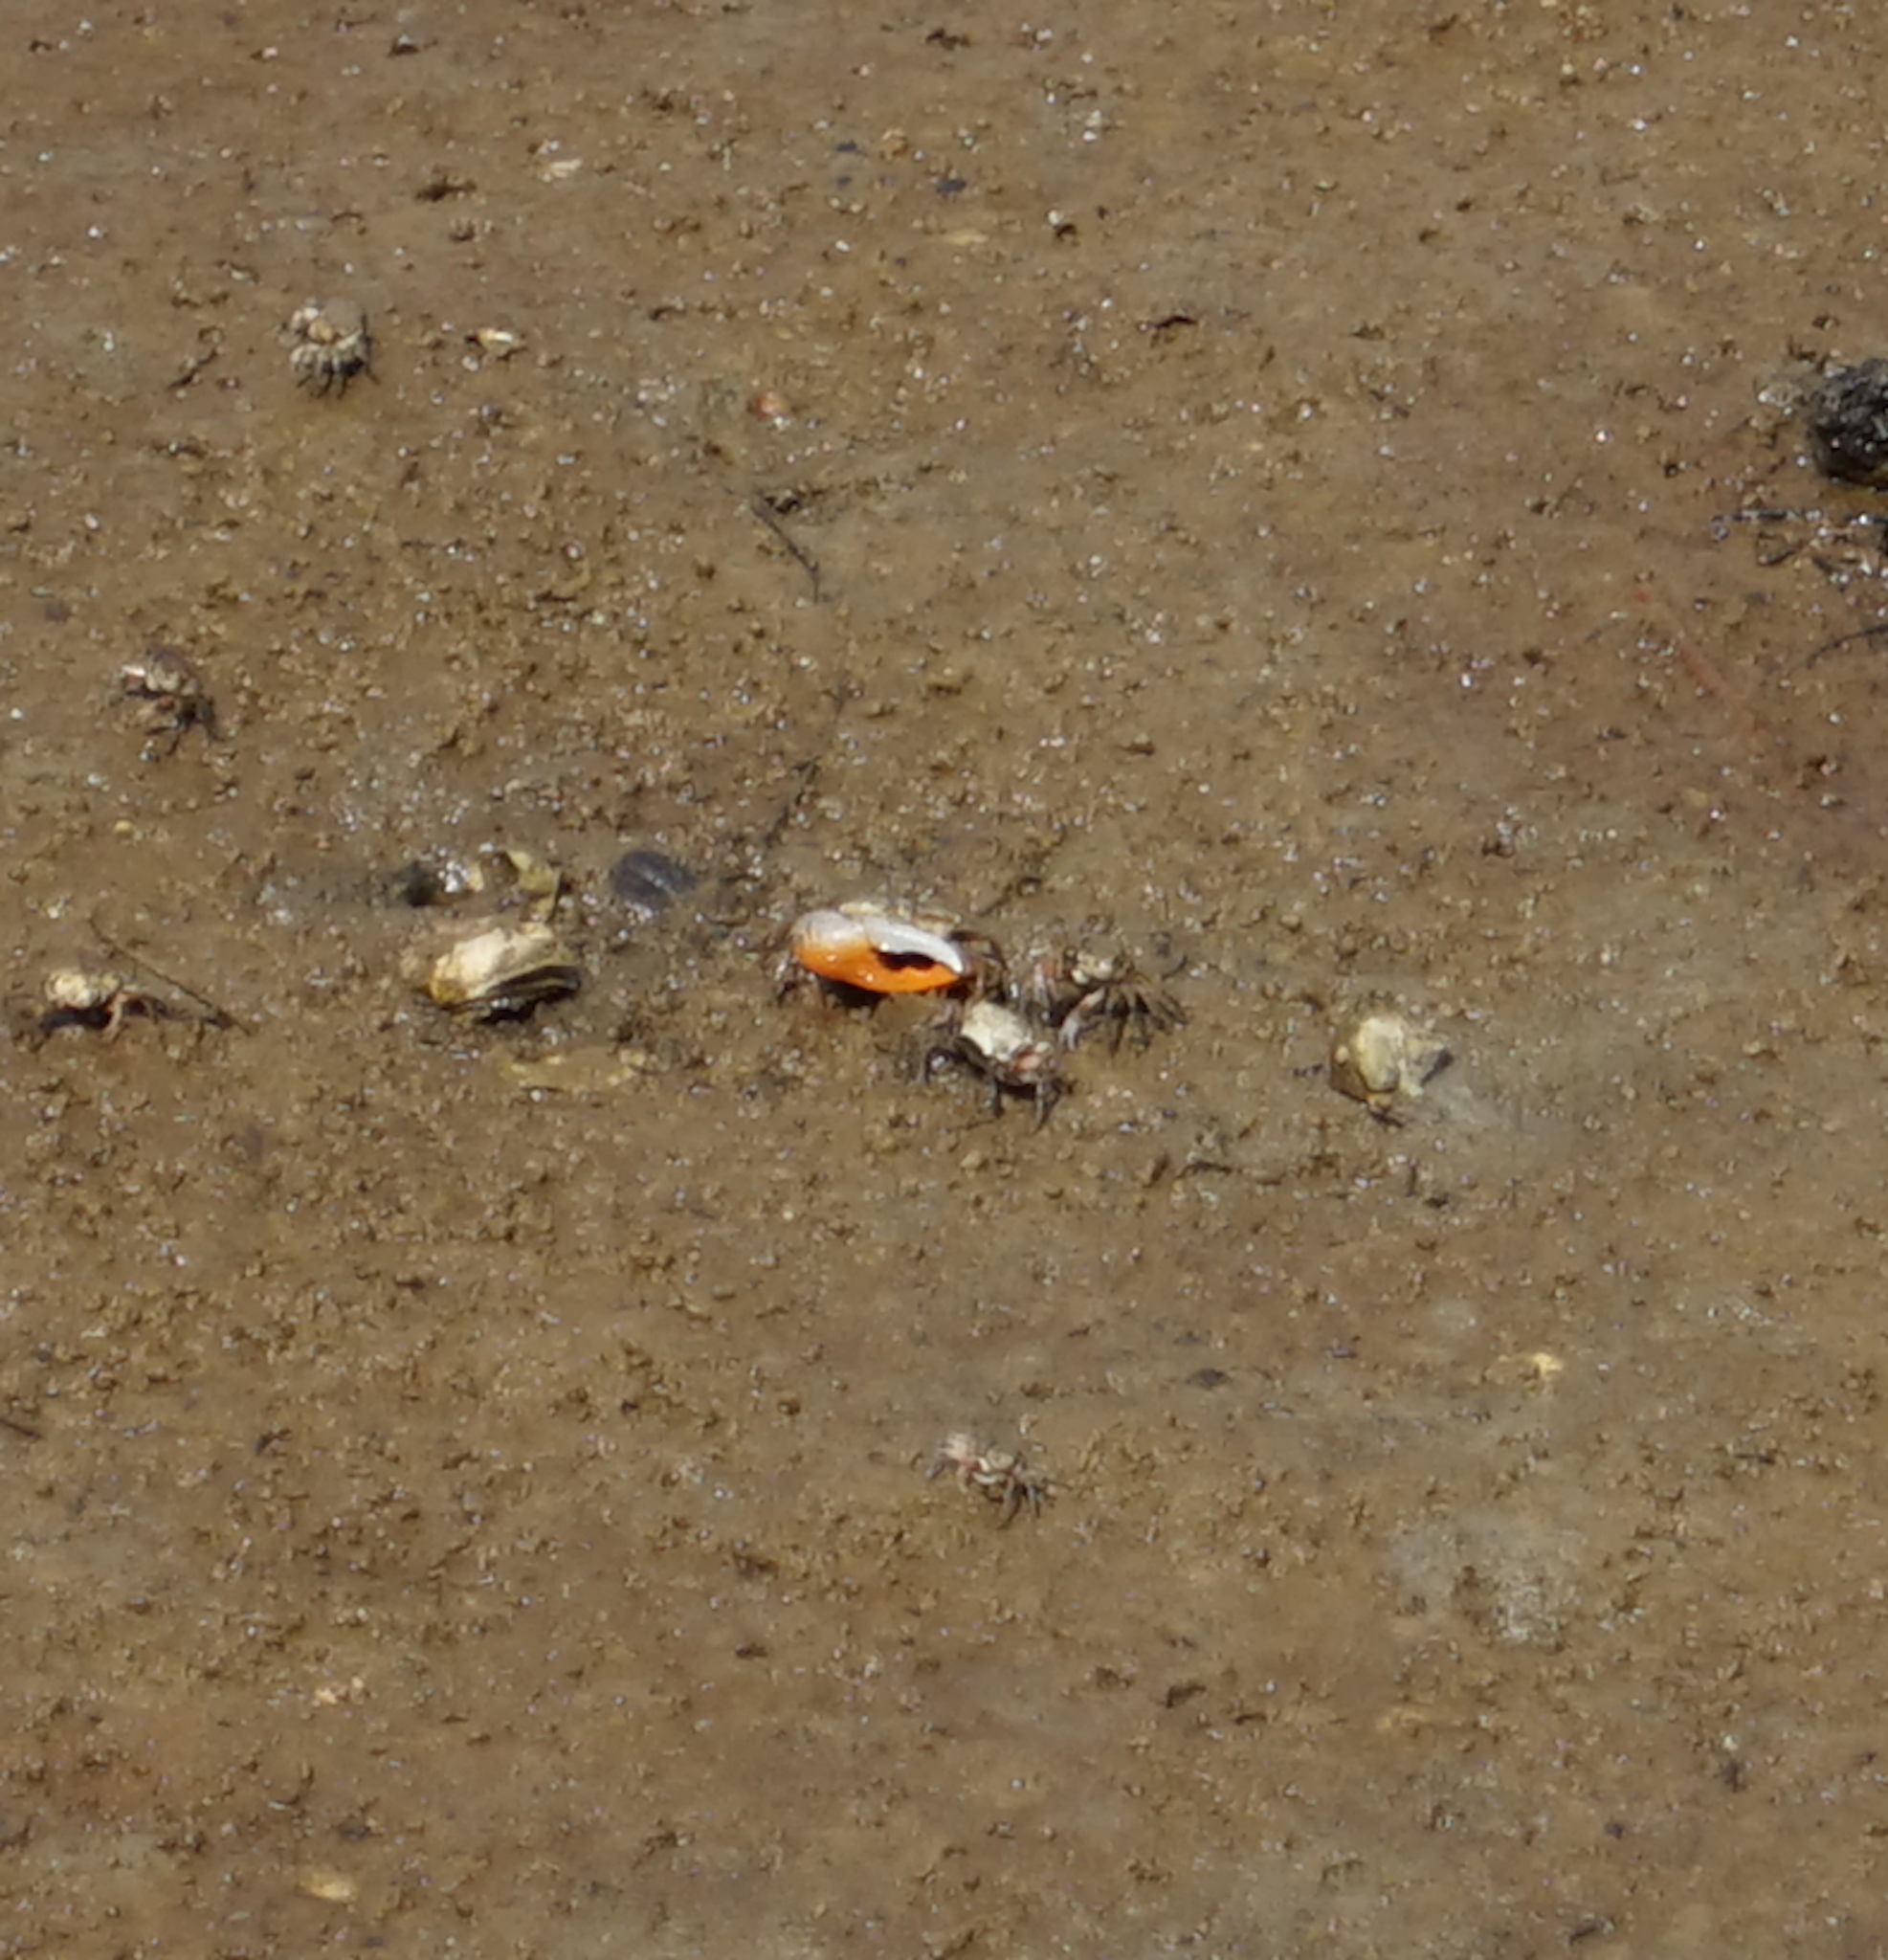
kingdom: Animalia
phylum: Arthropoda
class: Malacostraca
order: Decapoda
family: Ocypodidae
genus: Gelasimus
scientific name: Gelasimus vocans
